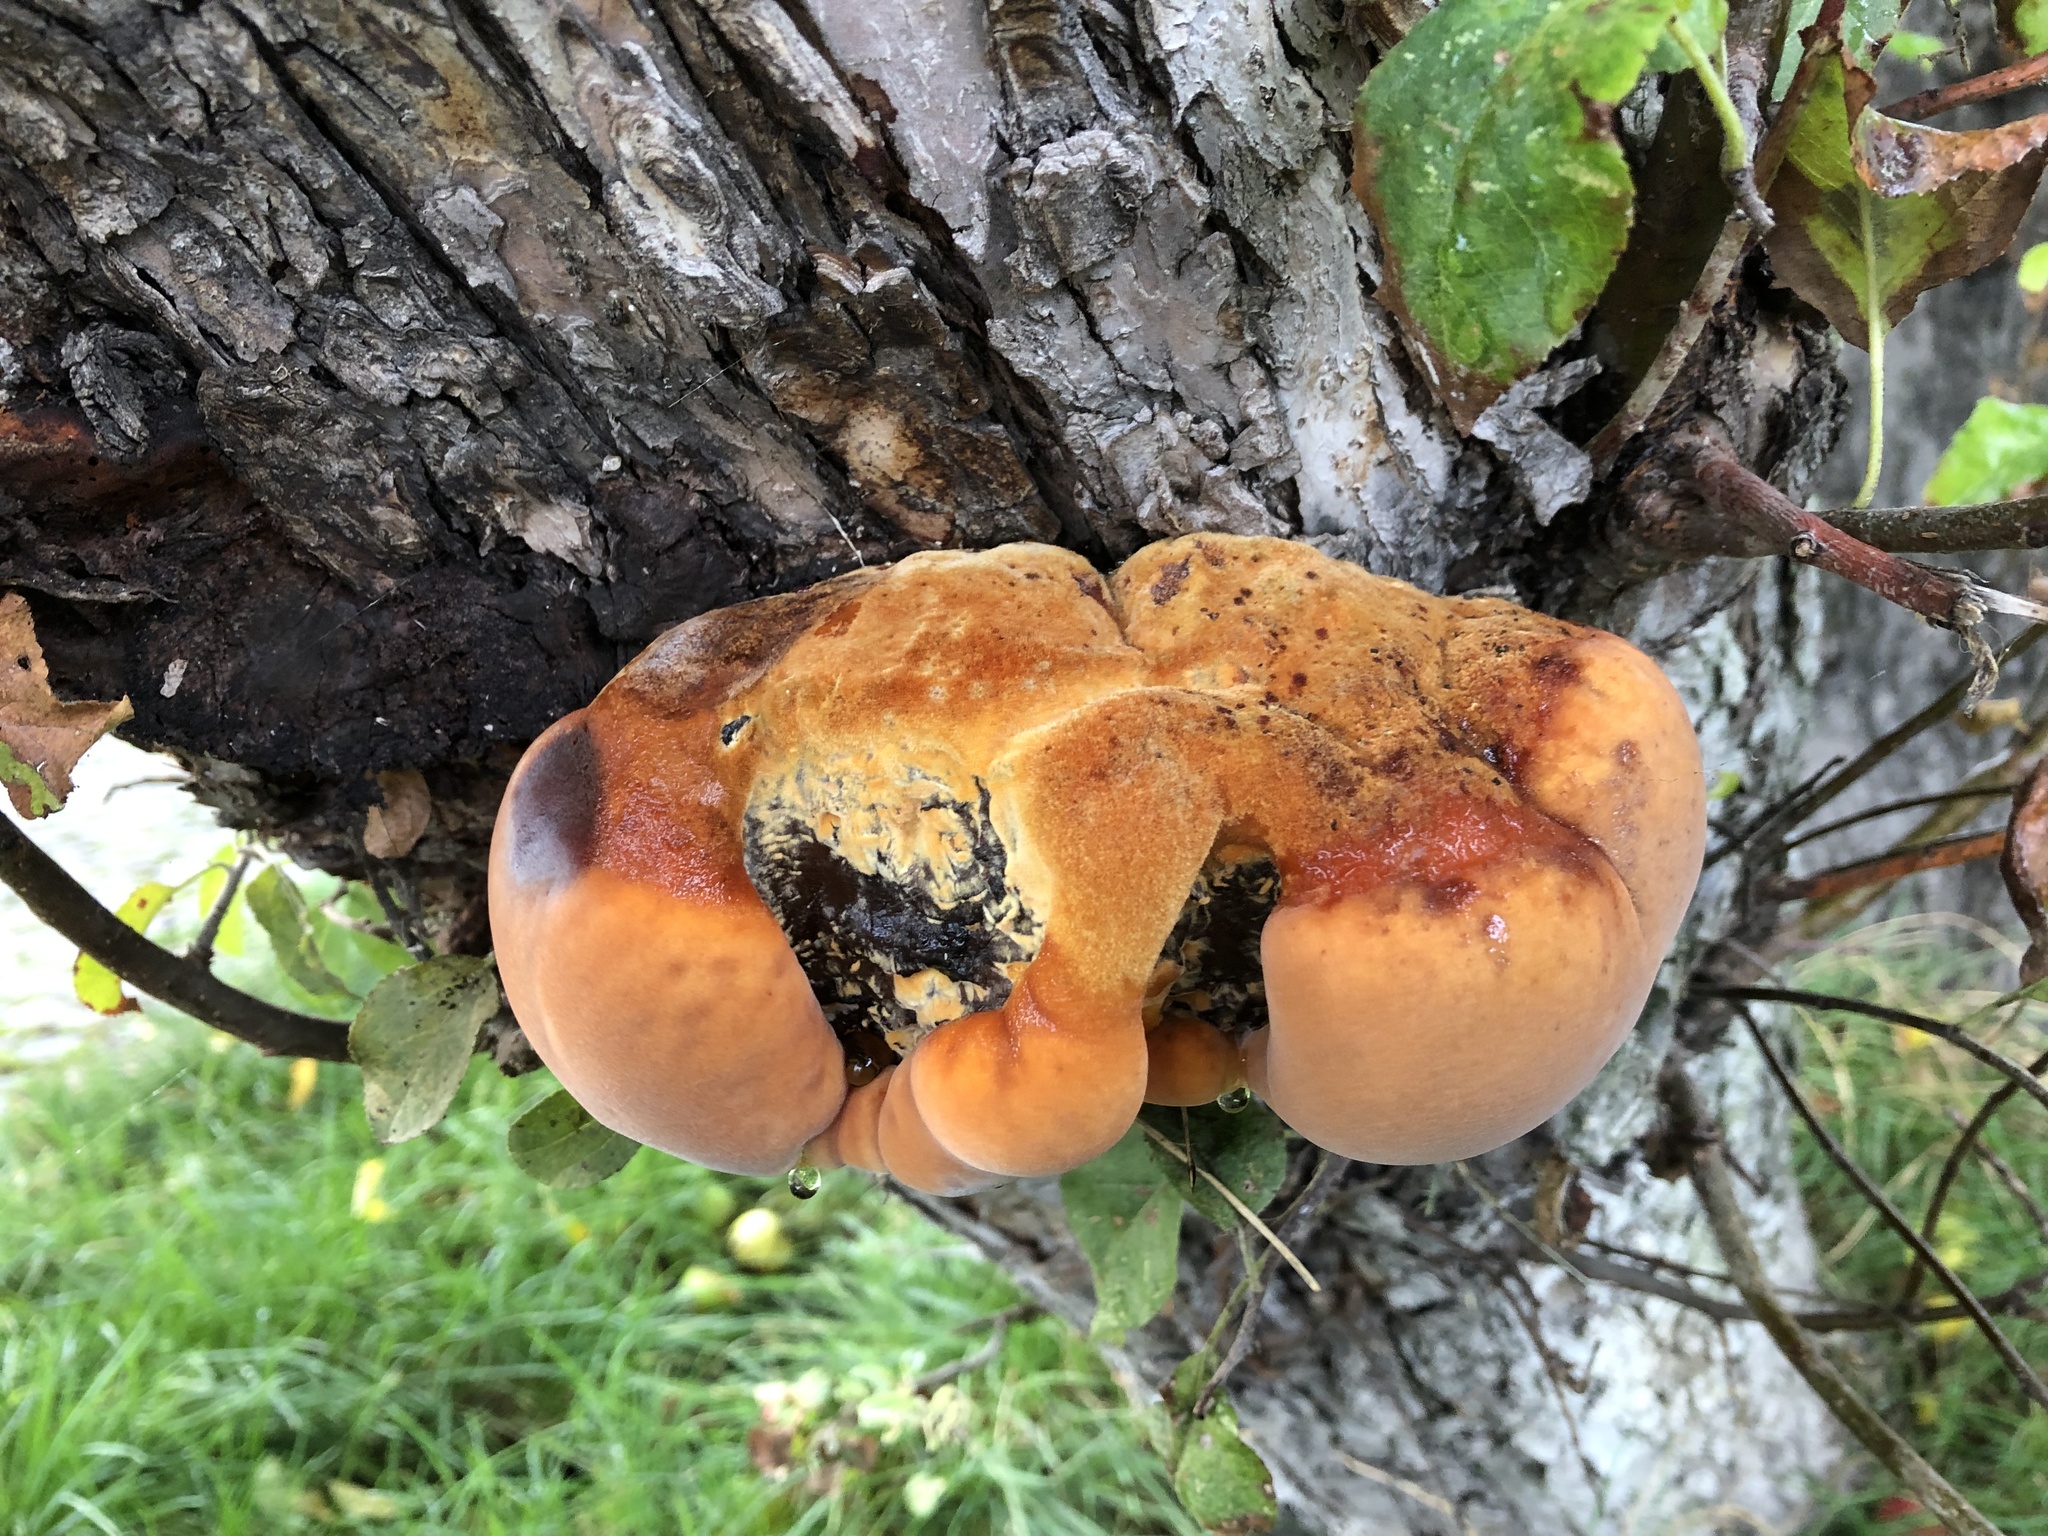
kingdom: Fungi
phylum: Basidiomycota
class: Agaricomycetes
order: Hymenochaetales
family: Hymenochaetaceae
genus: Inonotus
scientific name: Inonotus hispidus
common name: Shaggy bracket
